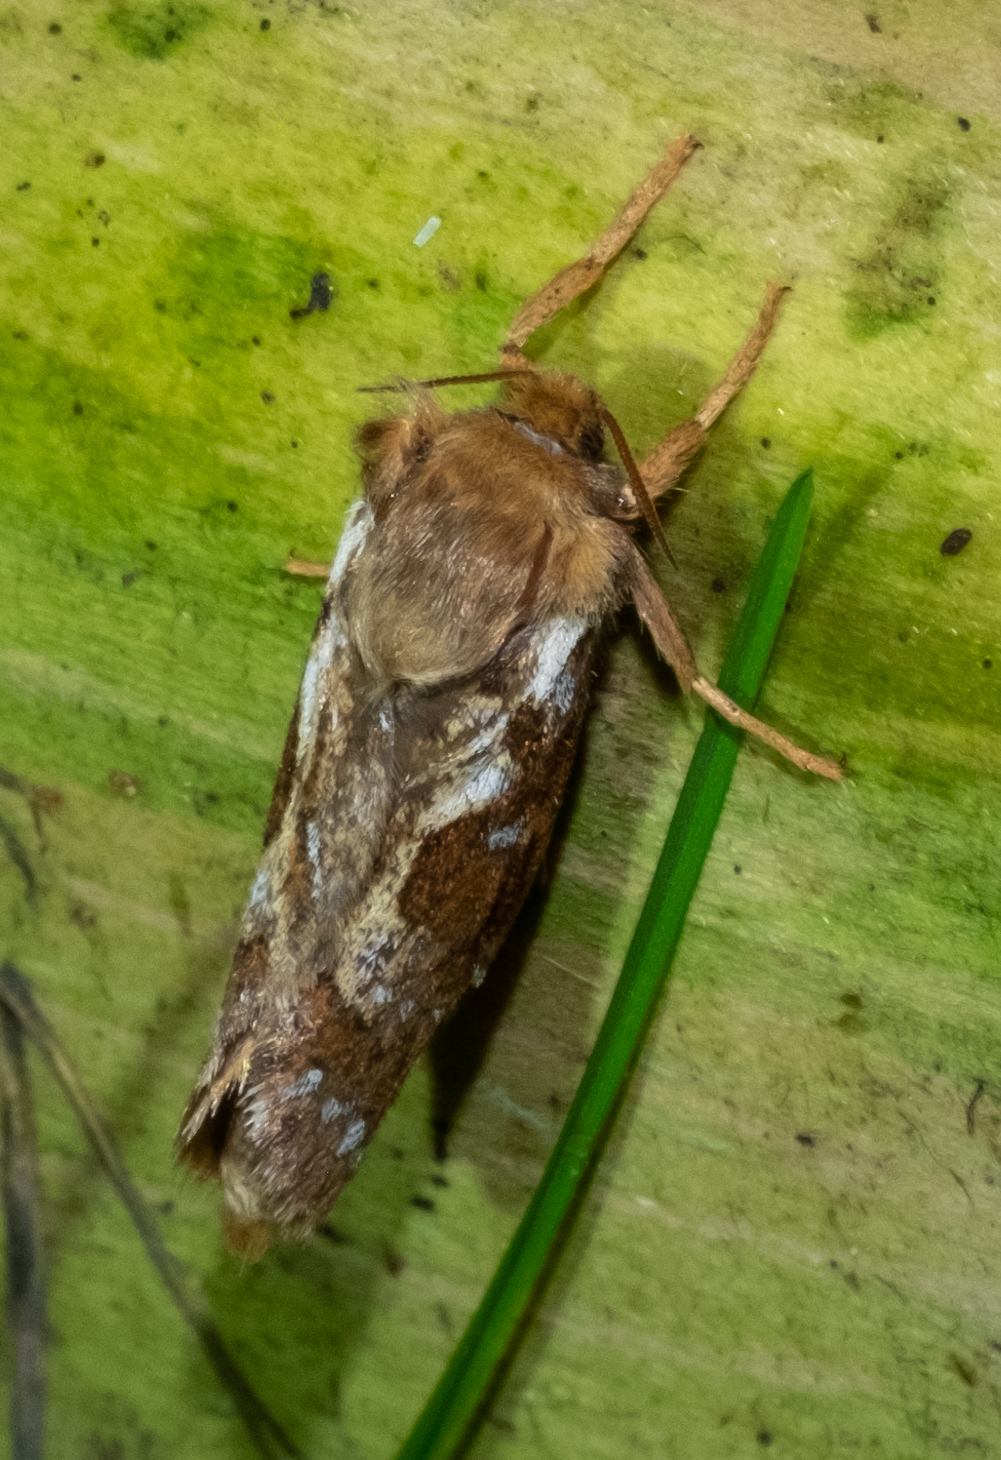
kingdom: Animalia
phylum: Arthropoda
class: Insecta
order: Lepidoptera
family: Hepialidae
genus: Korscheltellus
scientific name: Korscheltellus fusconebulosus
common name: Map-winged swift
